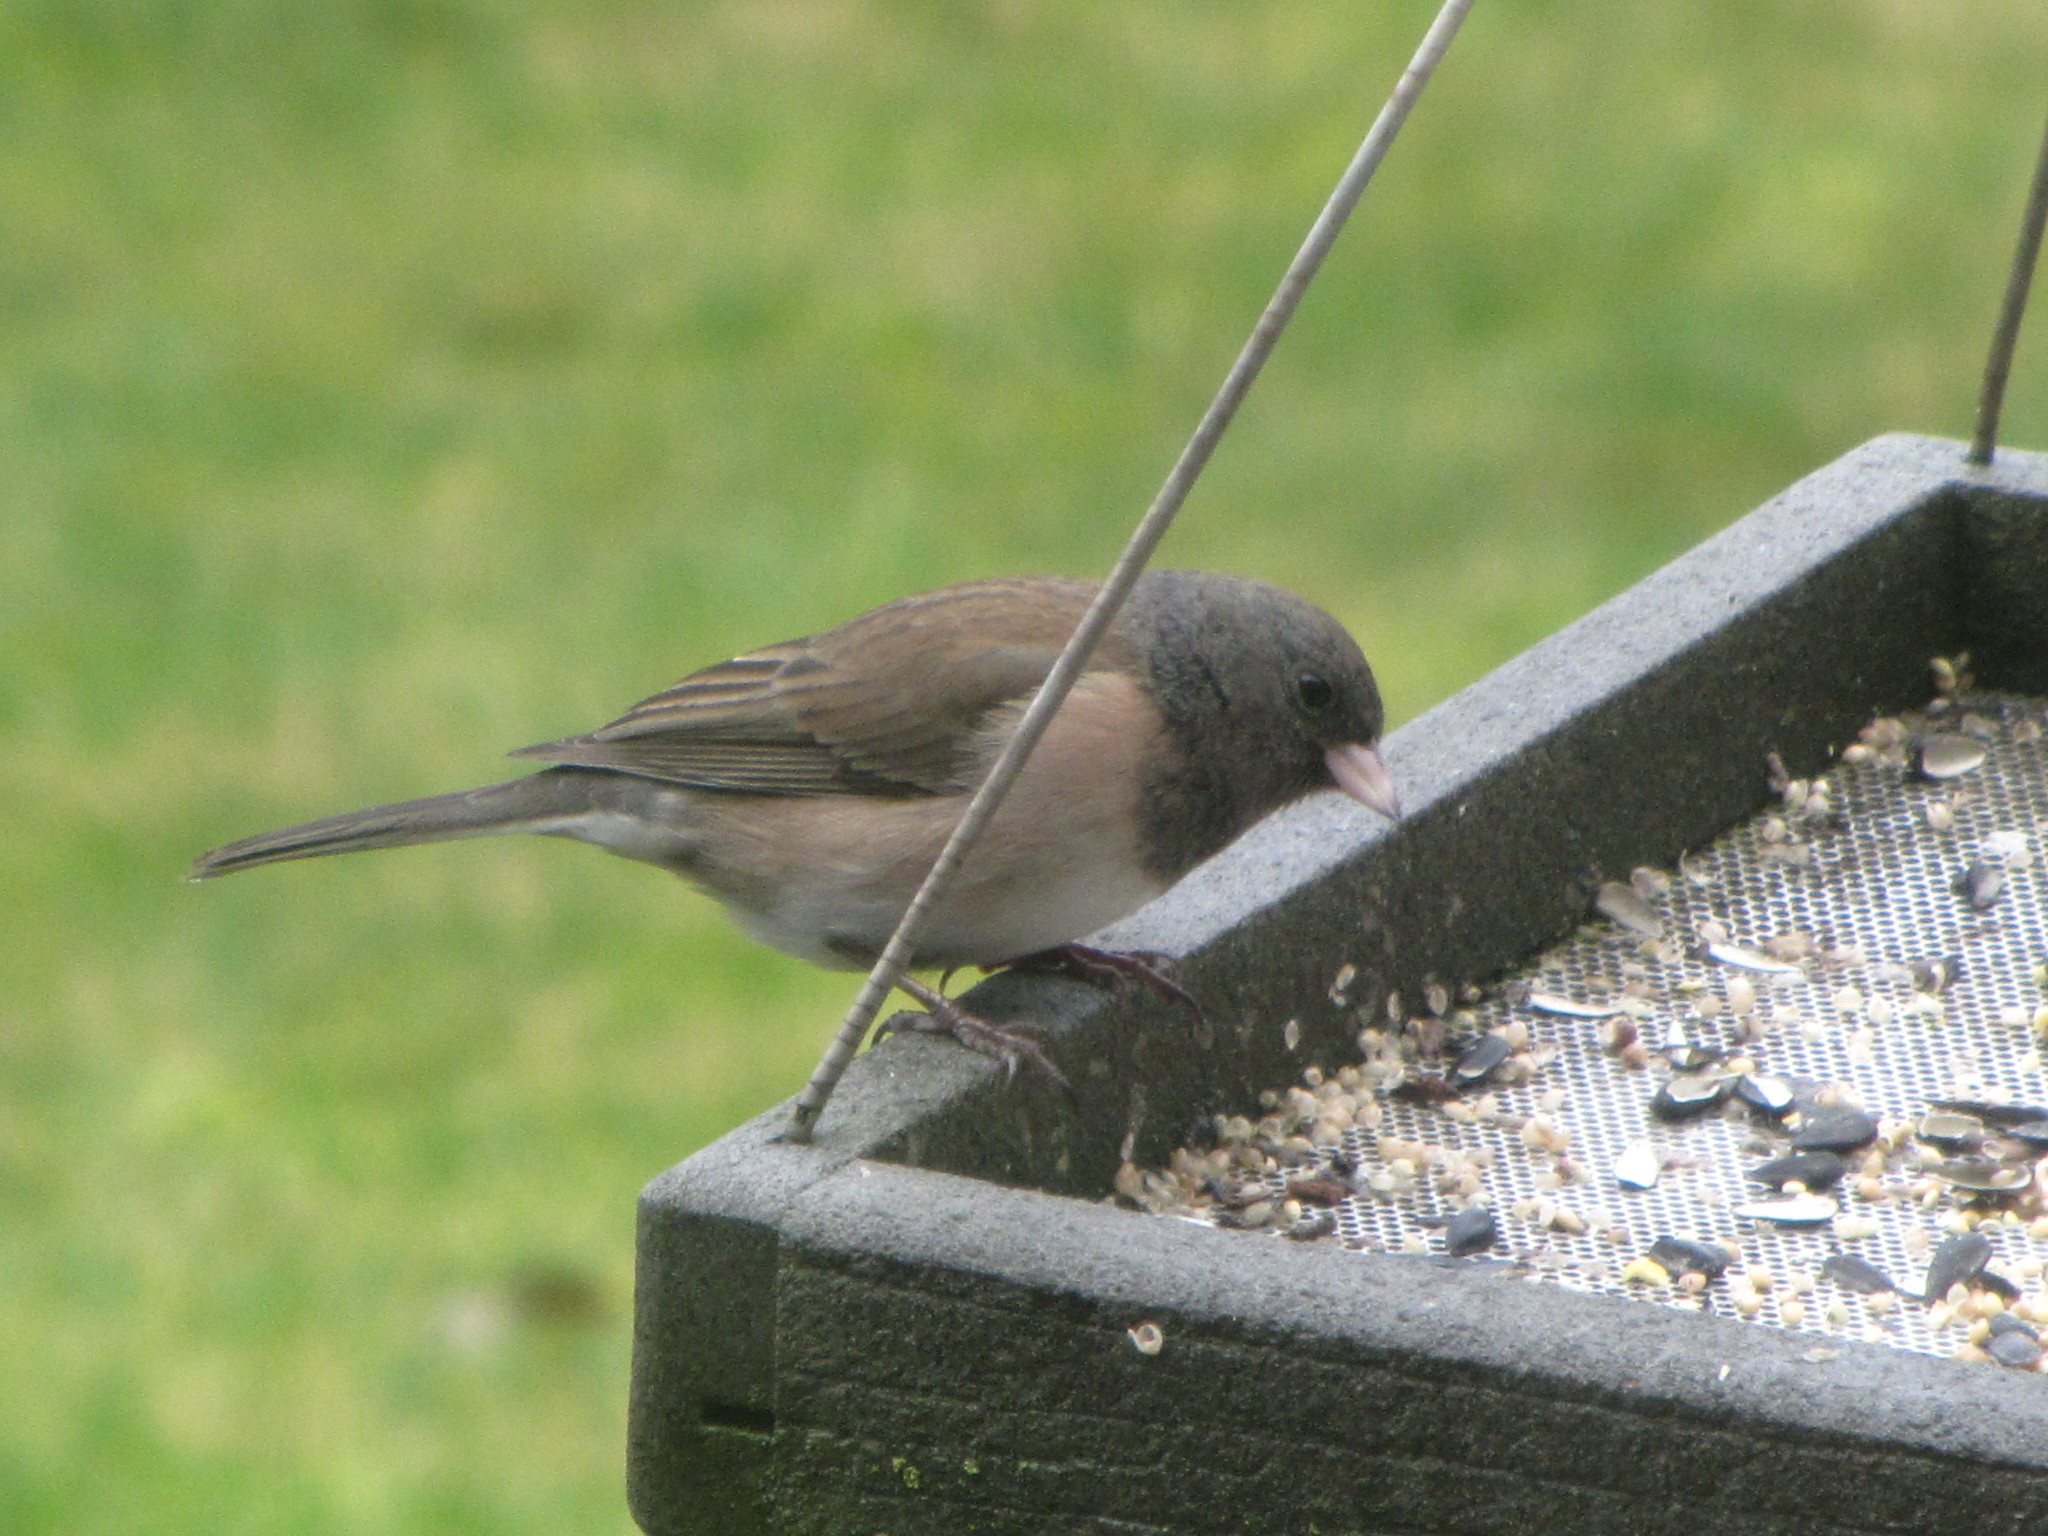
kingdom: Animalia
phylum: Chordata
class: Aves
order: Passeriformes
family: Passerellidae
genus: Junco
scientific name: Junco hyemalis
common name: Dark-eyed junco
